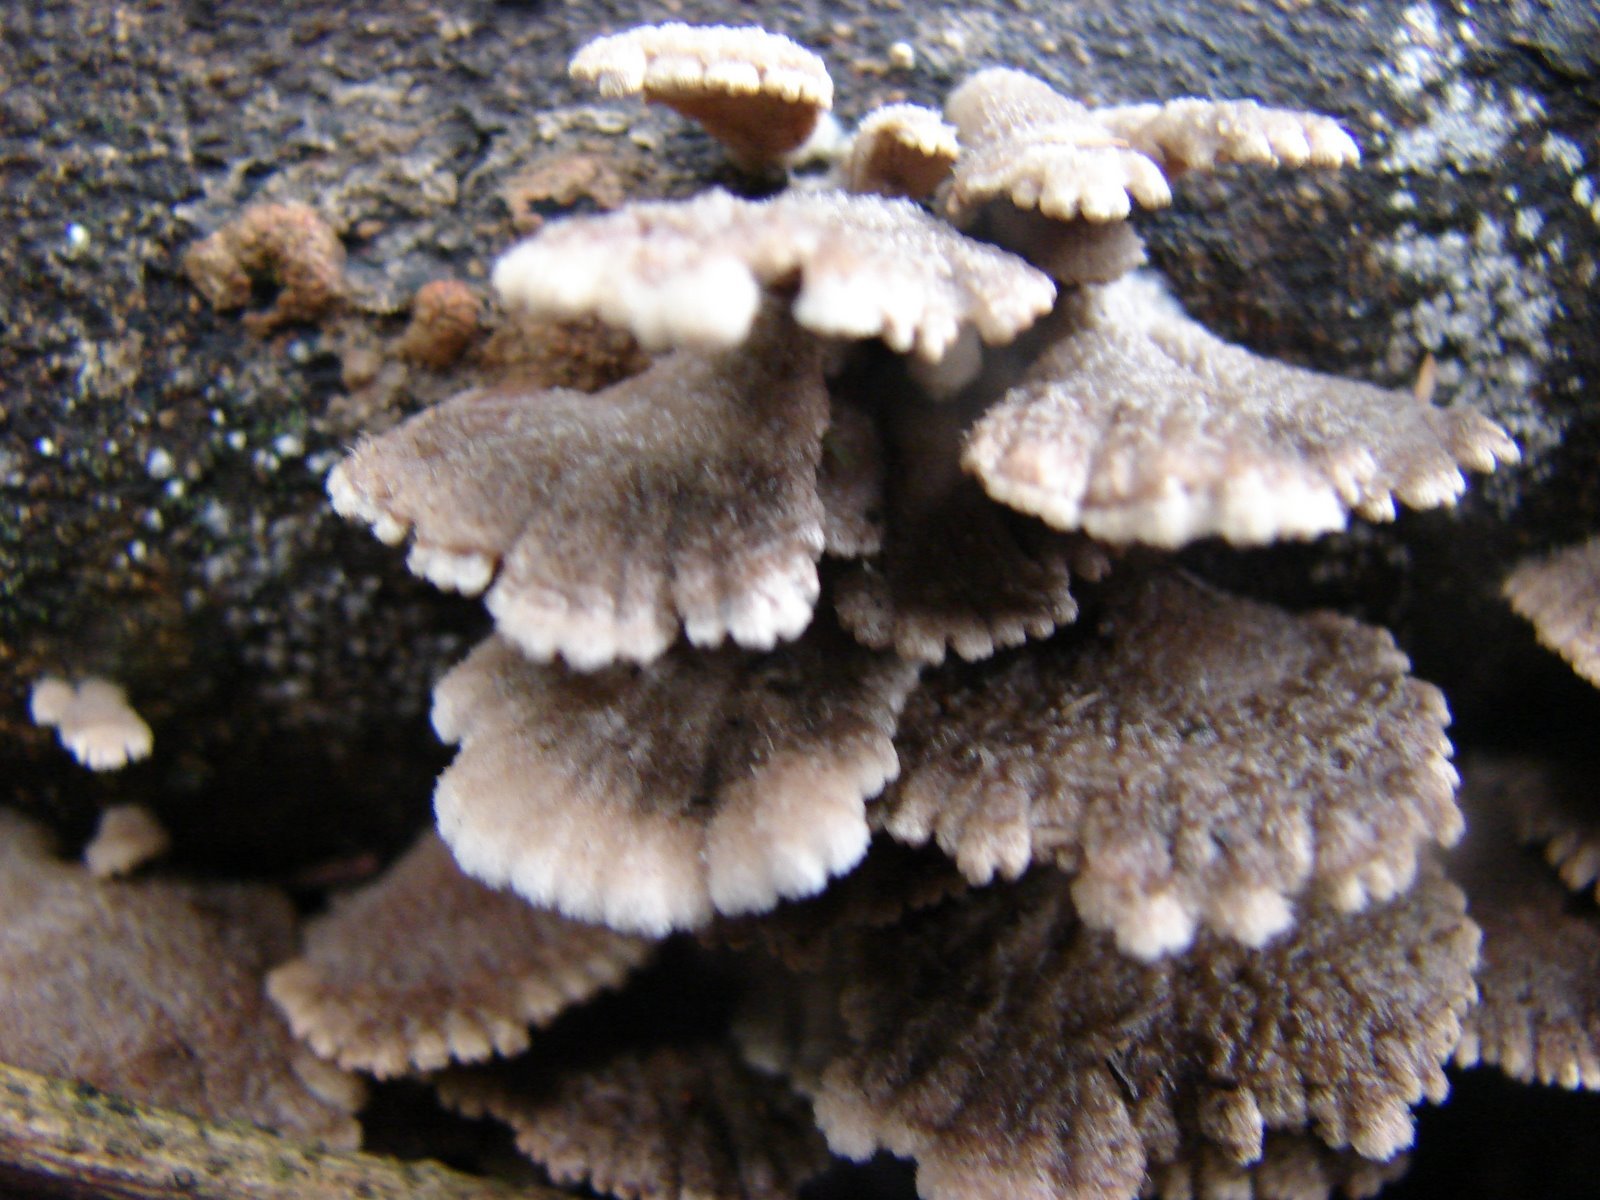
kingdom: Fungi
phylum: Basidiomycota
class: Agaricomycetes
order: Agaricales
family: Schizophyllaceae
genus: Schizophyllum
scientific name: Schizophyllum commune
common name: Common porecrust
